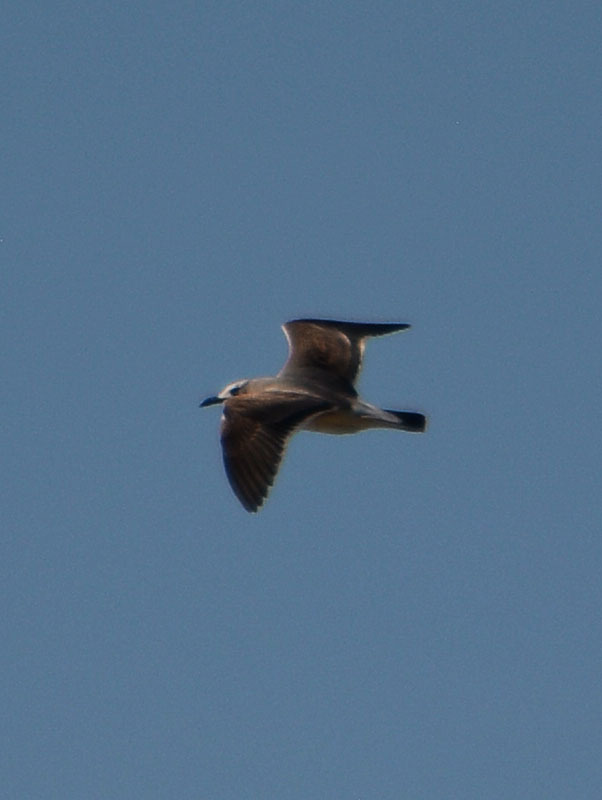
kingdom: Animalia
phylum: Chordata
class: Aves
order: Charadriiformes
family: Laridae
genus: Leucophaeus
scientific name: Leucophaeus atricilla
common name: Laughing gull
